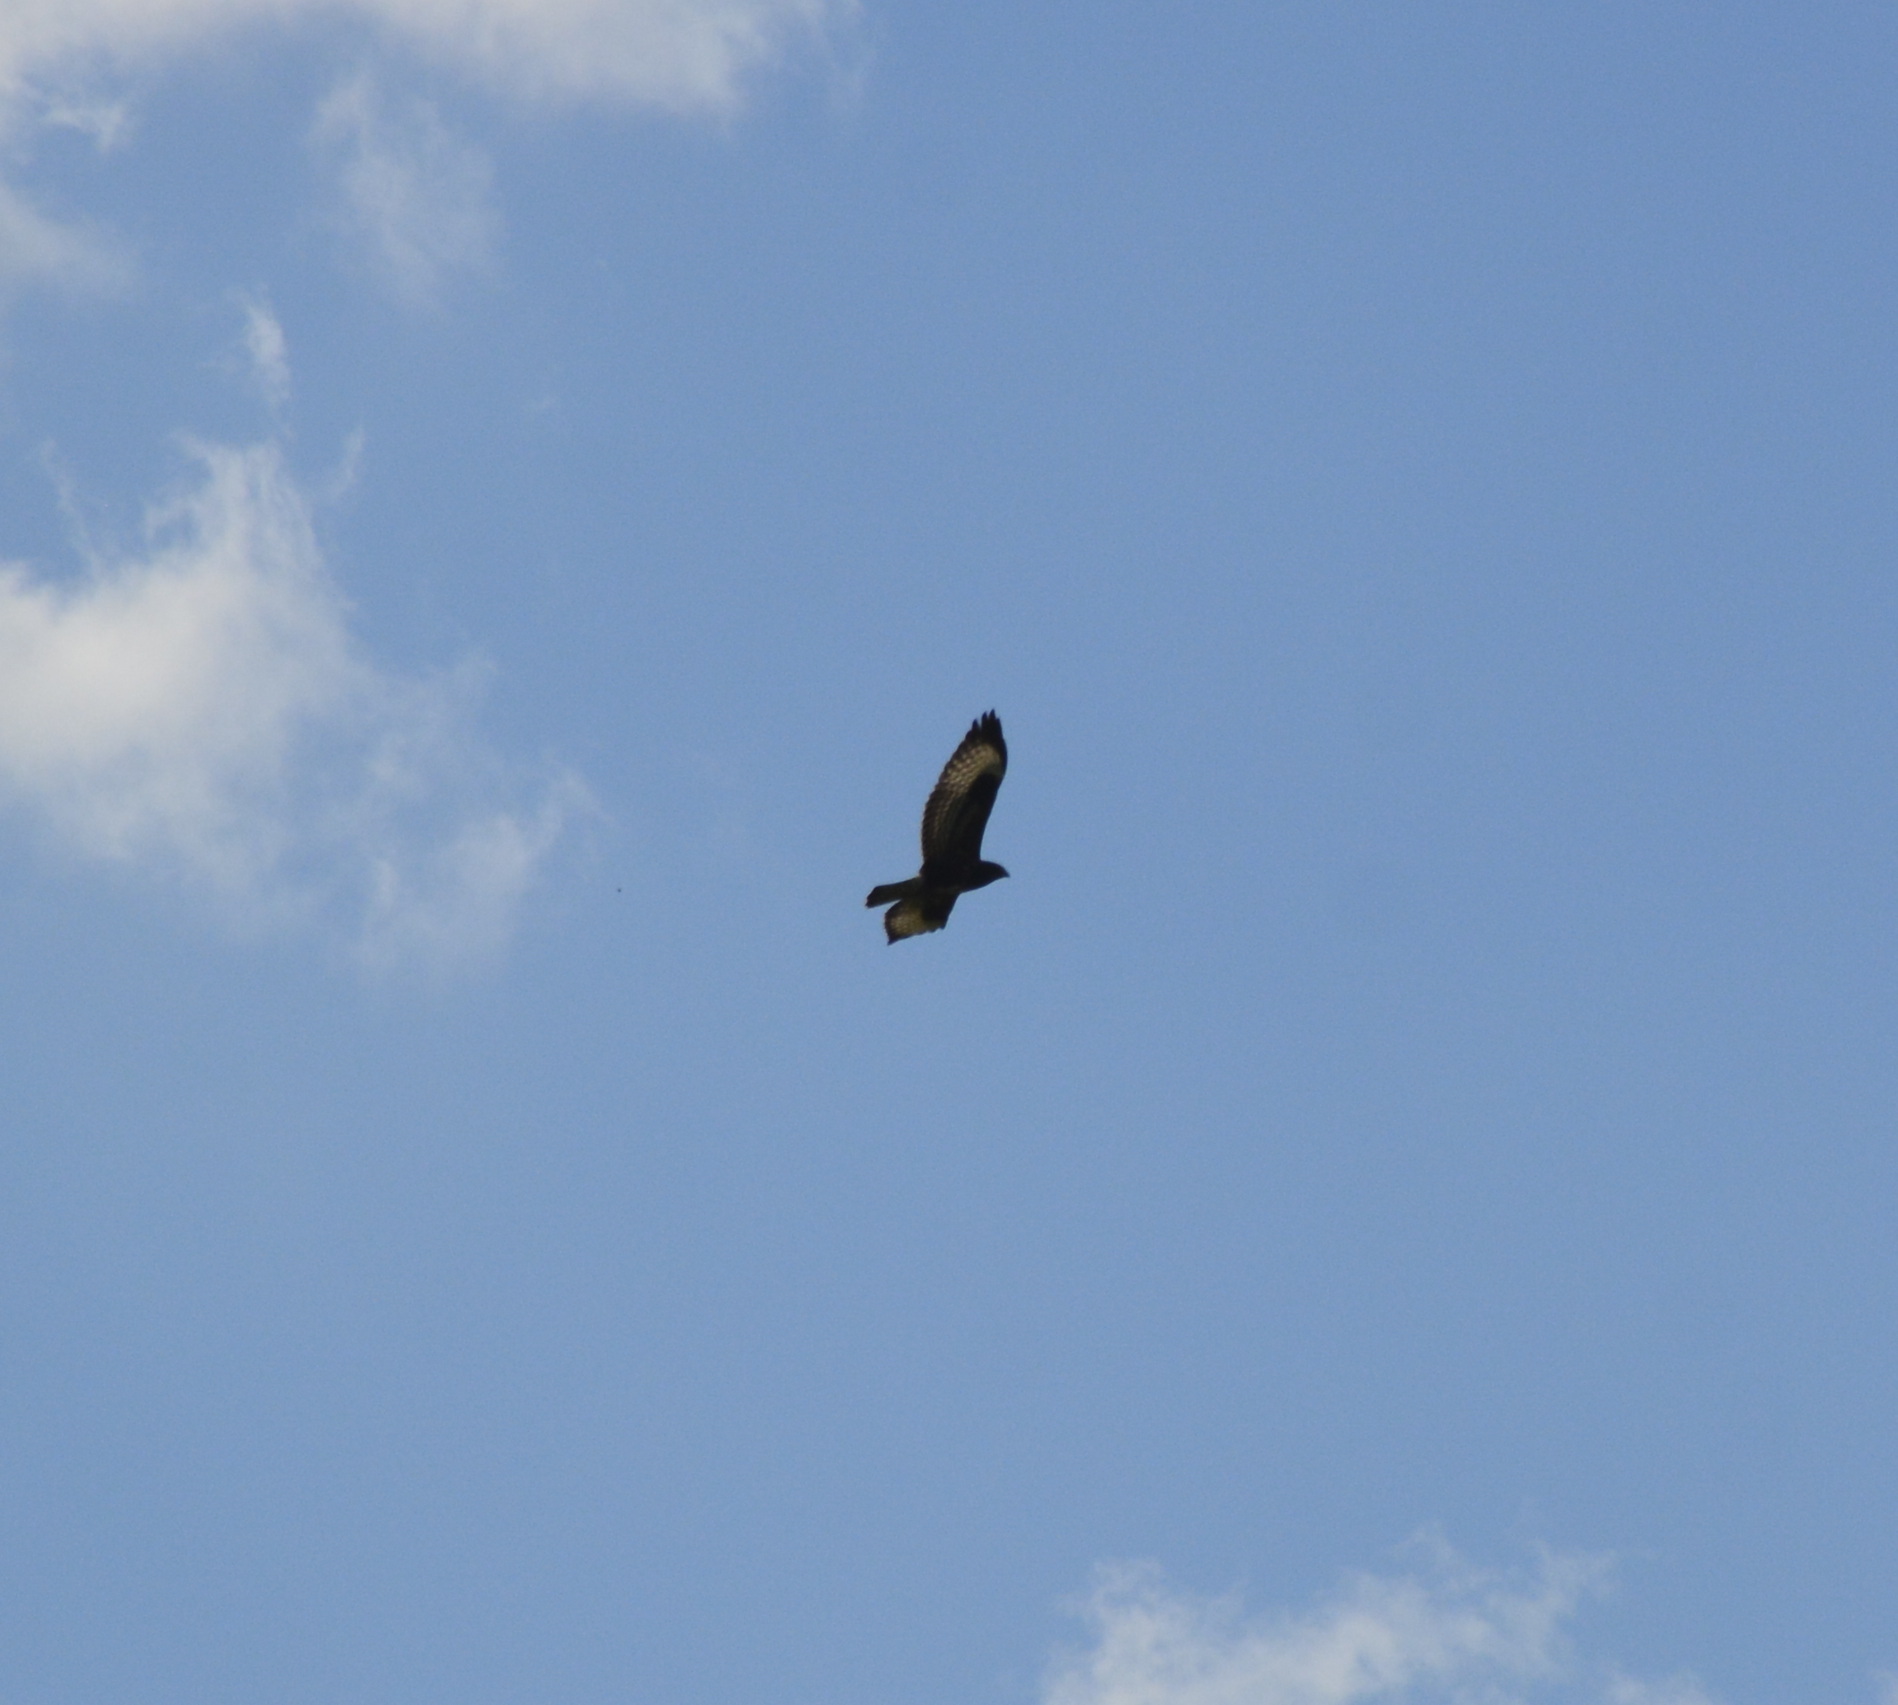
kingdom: Animalia
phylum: Chordata
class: Aves
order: Accipitriformes
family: Accipitridae
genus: Buteo
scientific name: Buteo buteo
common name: Common buzzard
